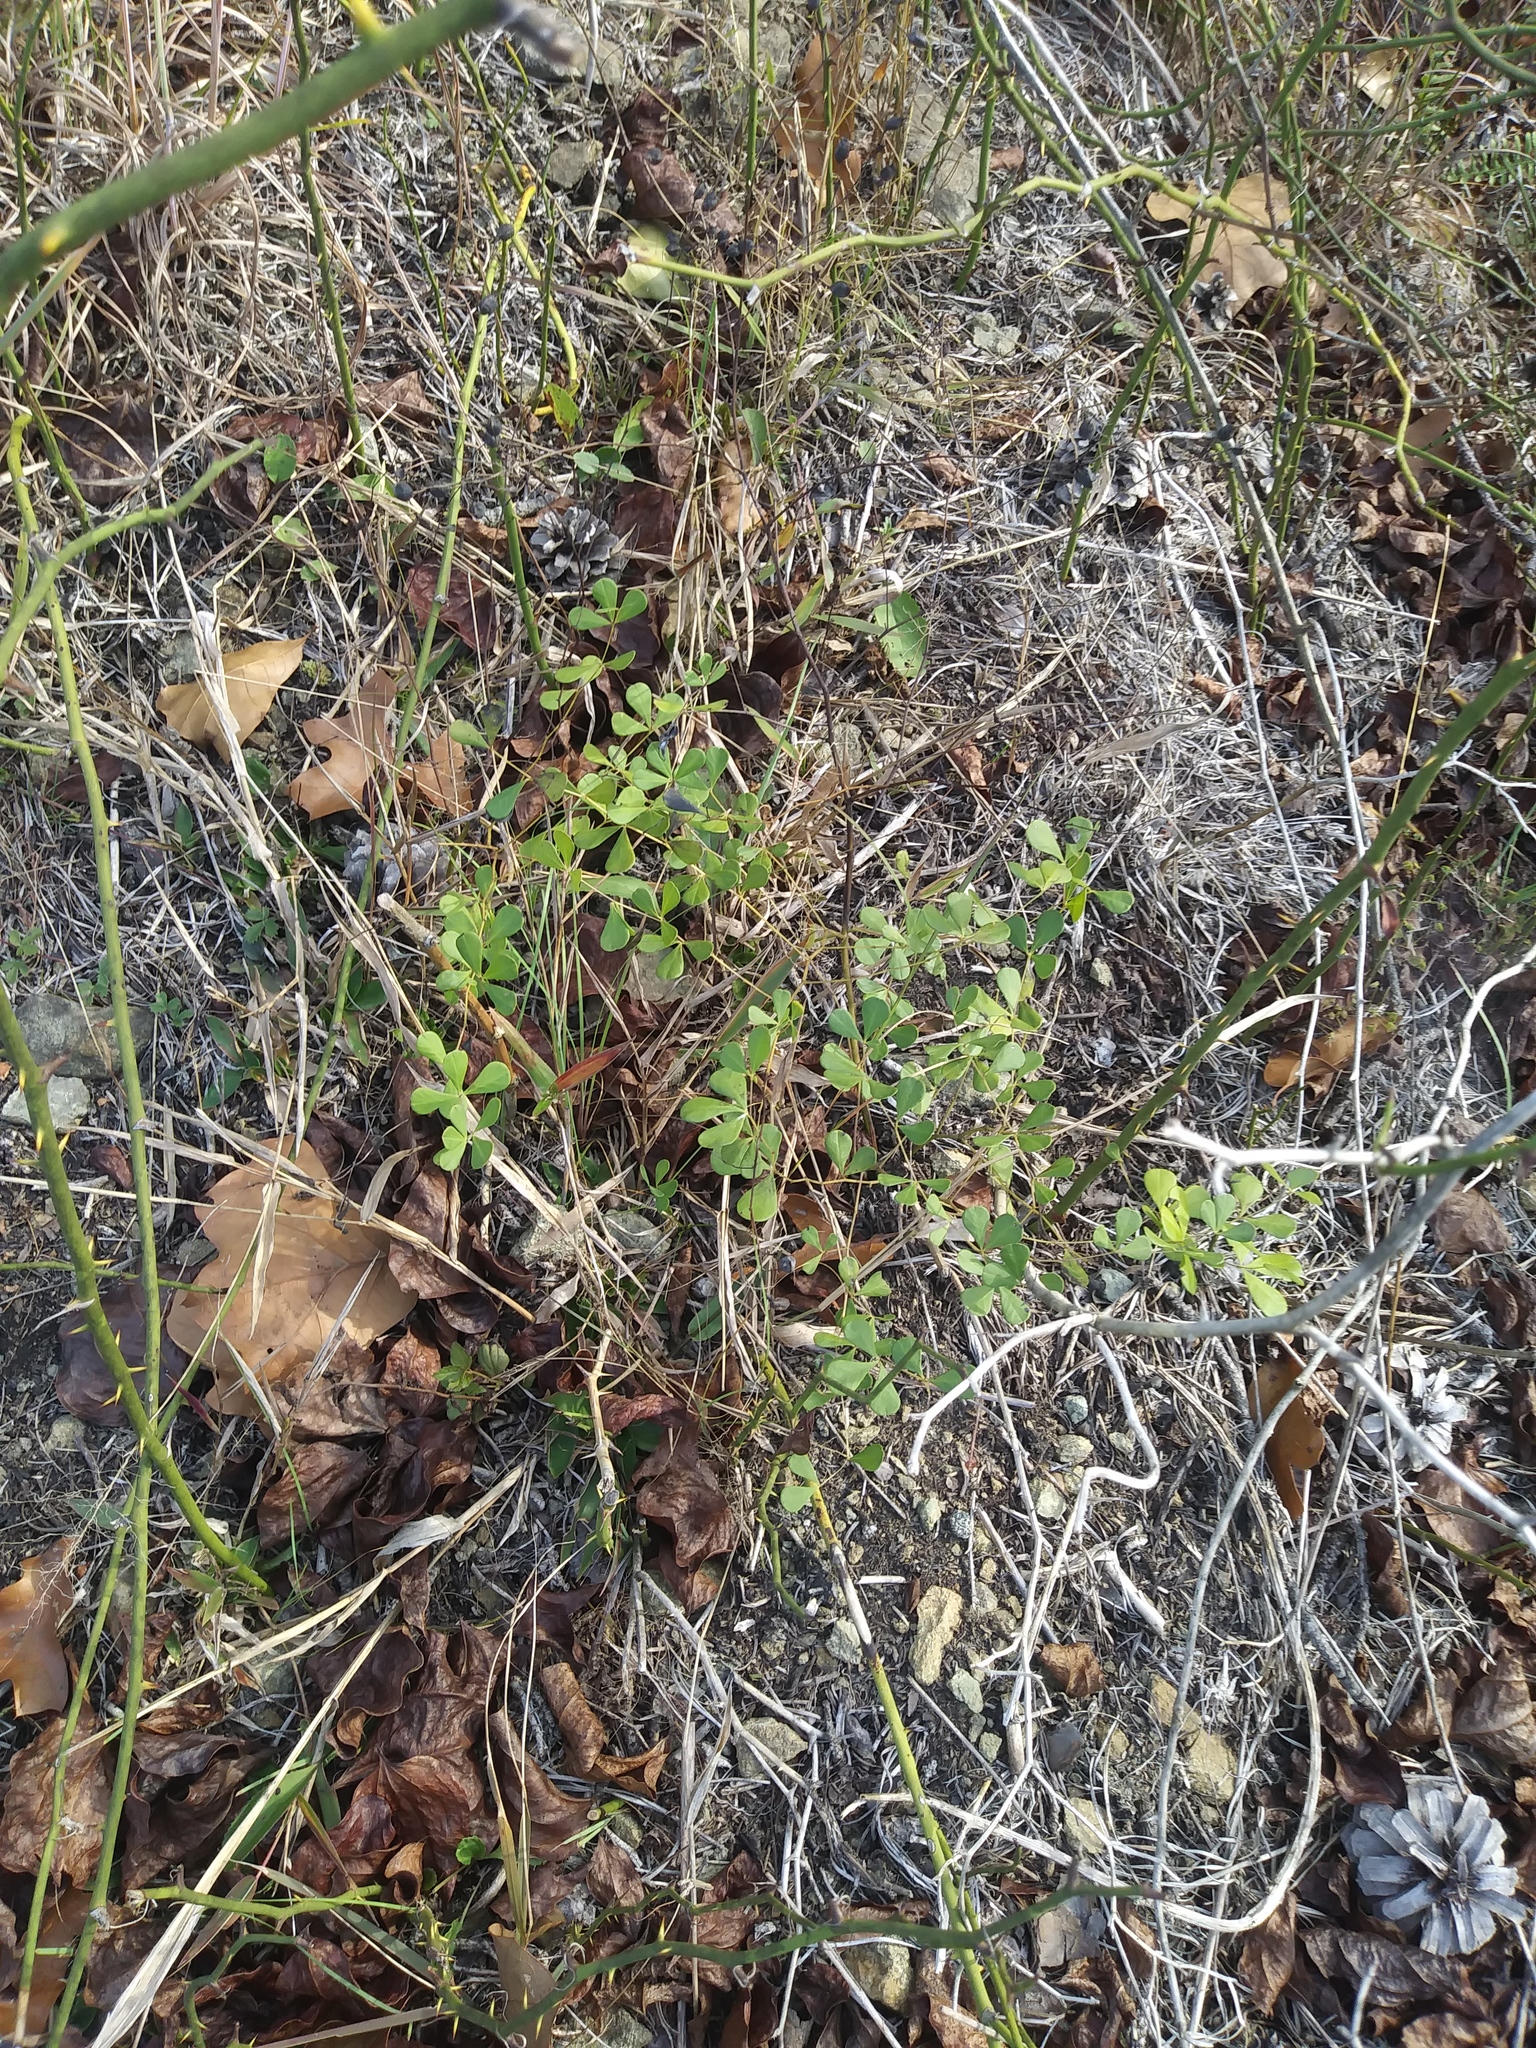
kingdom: Plantae
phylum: Tracheophyta
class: Magnoliopsida
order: Fabales
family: Fabaceae
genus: Baptisia
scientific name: Baptisia tinctoria
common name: Wild indigo
